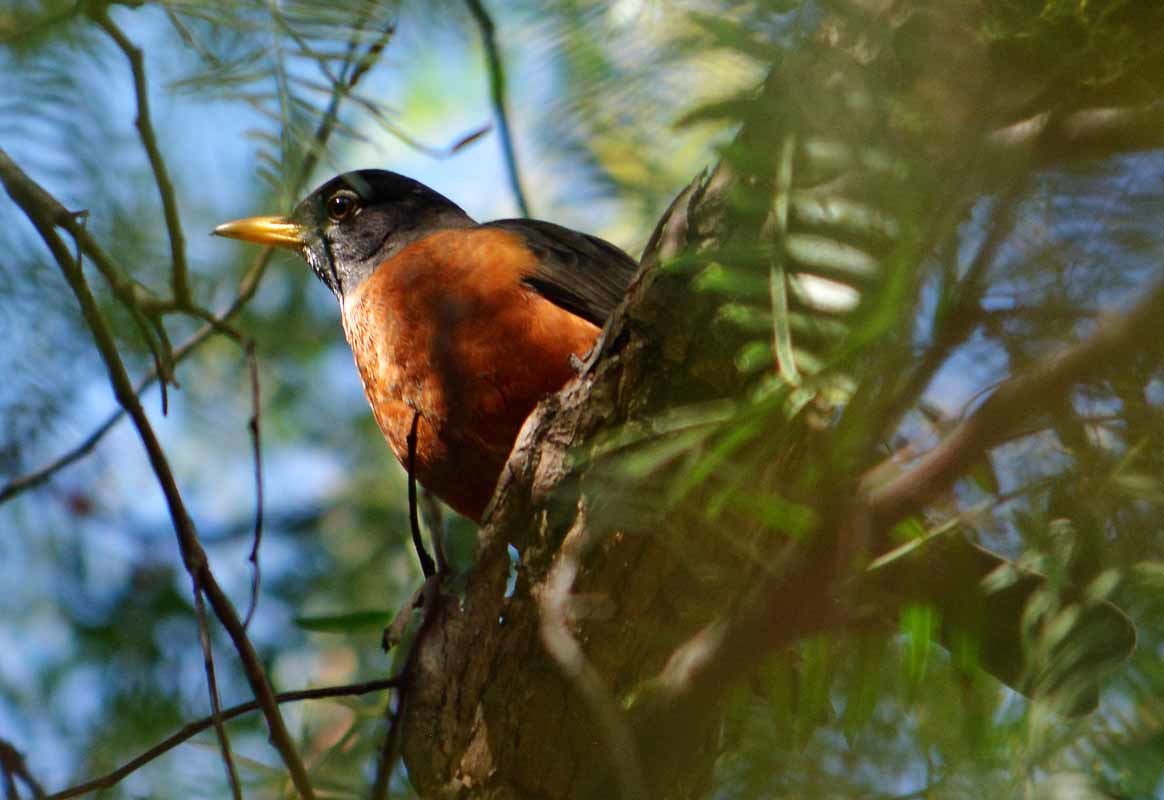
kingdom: Animalia
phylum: Chordata
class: Aves
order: Passeriformes
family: Turdidae
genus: Turdus
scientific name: Turdus migratorius
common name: American robin
